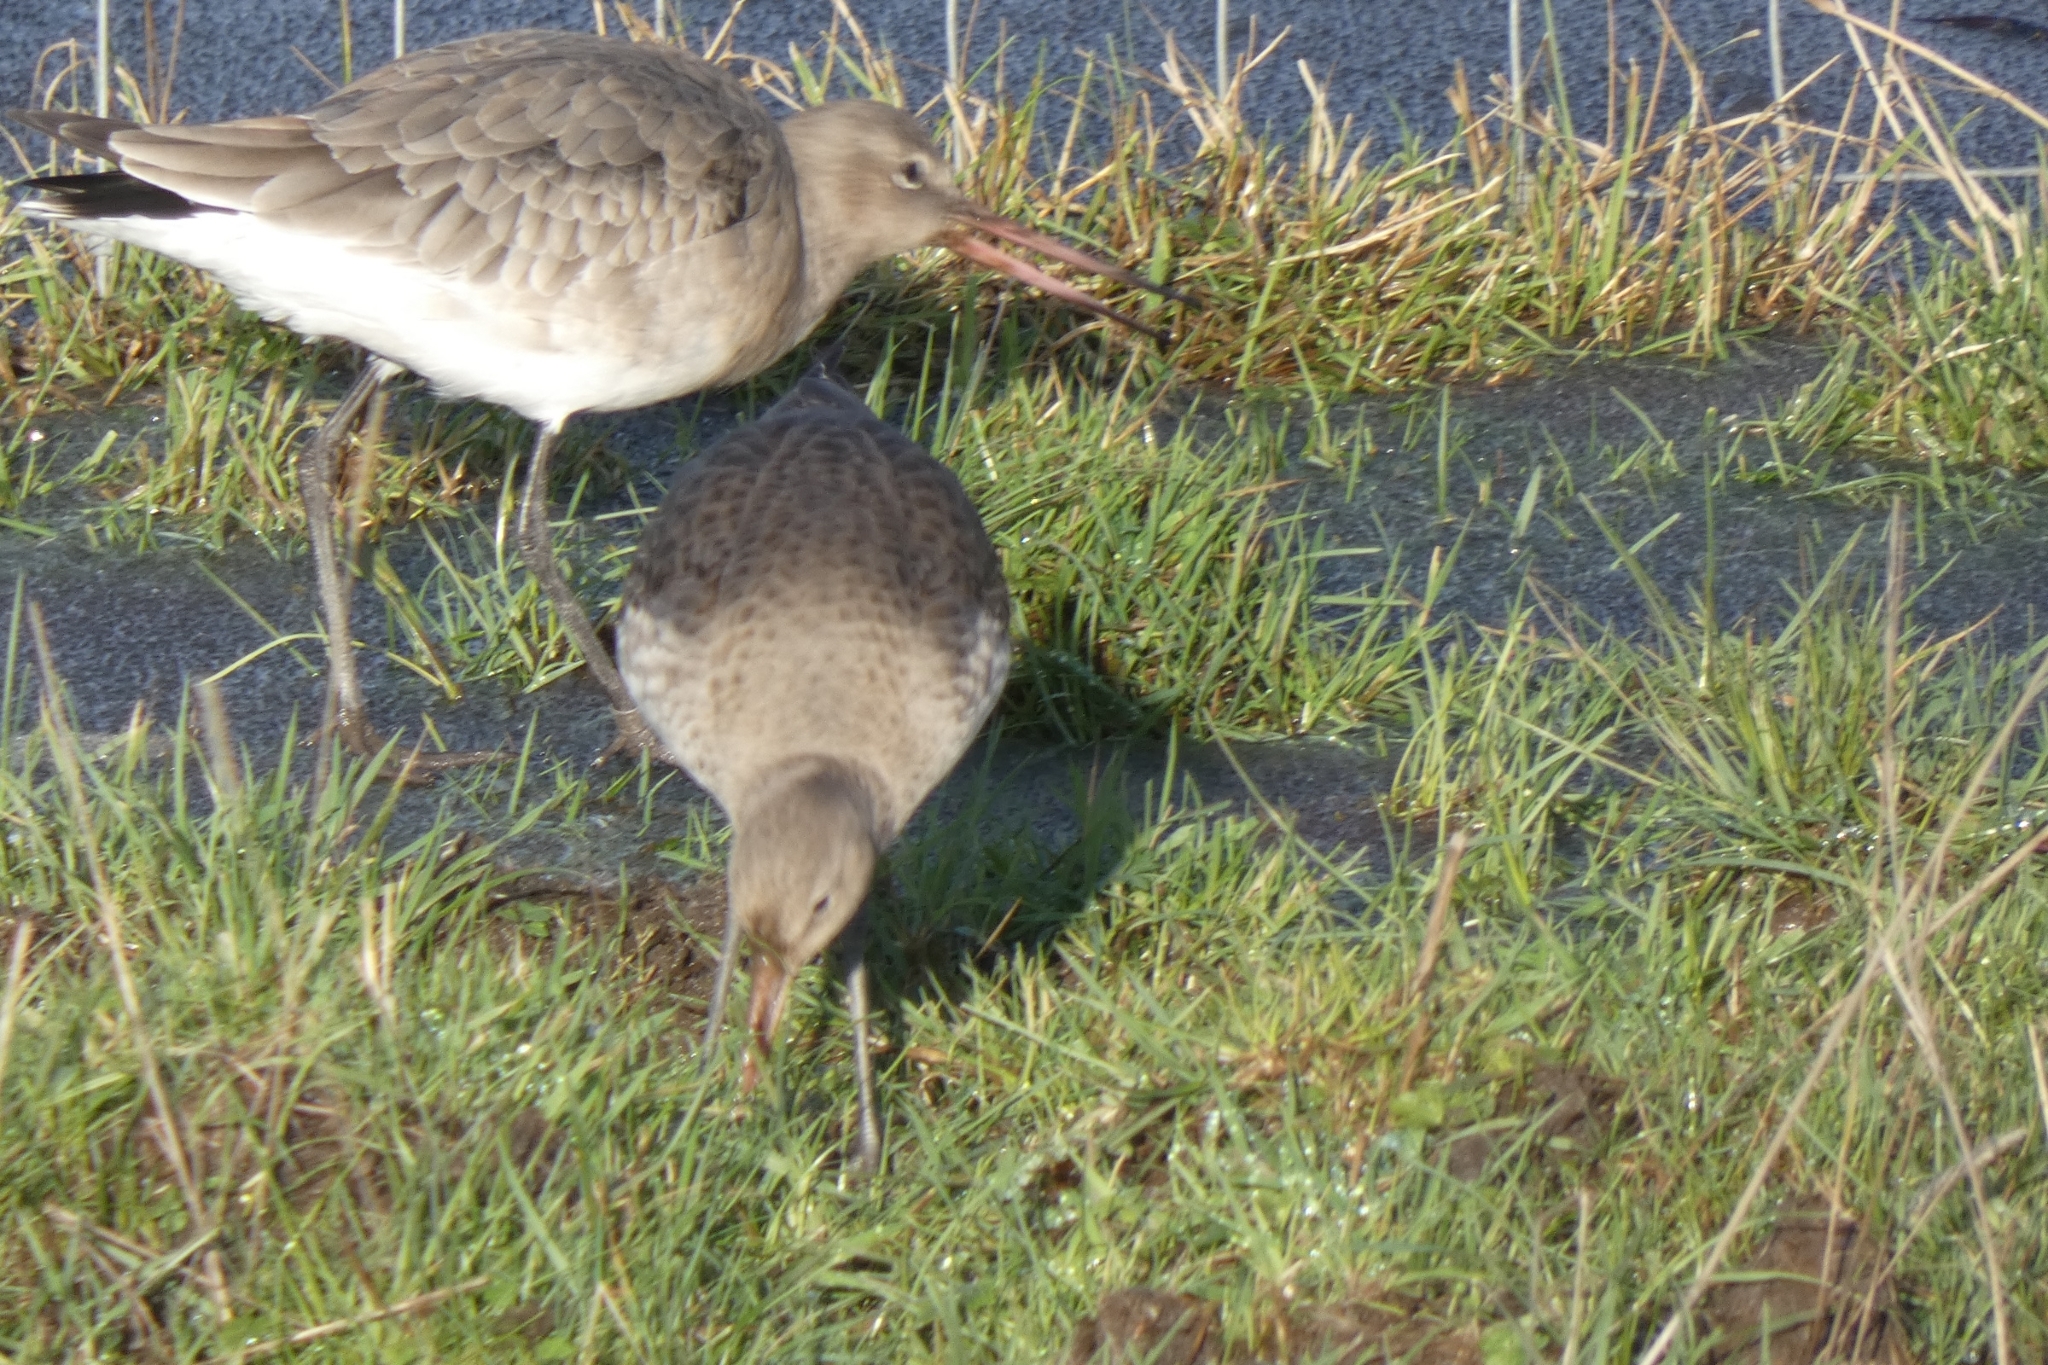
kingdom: Animalia
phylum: Chordata
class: Aves
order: Charadriiformes
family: Scolopacidae
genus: Limosa
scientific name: Limosa limosa
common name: Black-tailed godwit
